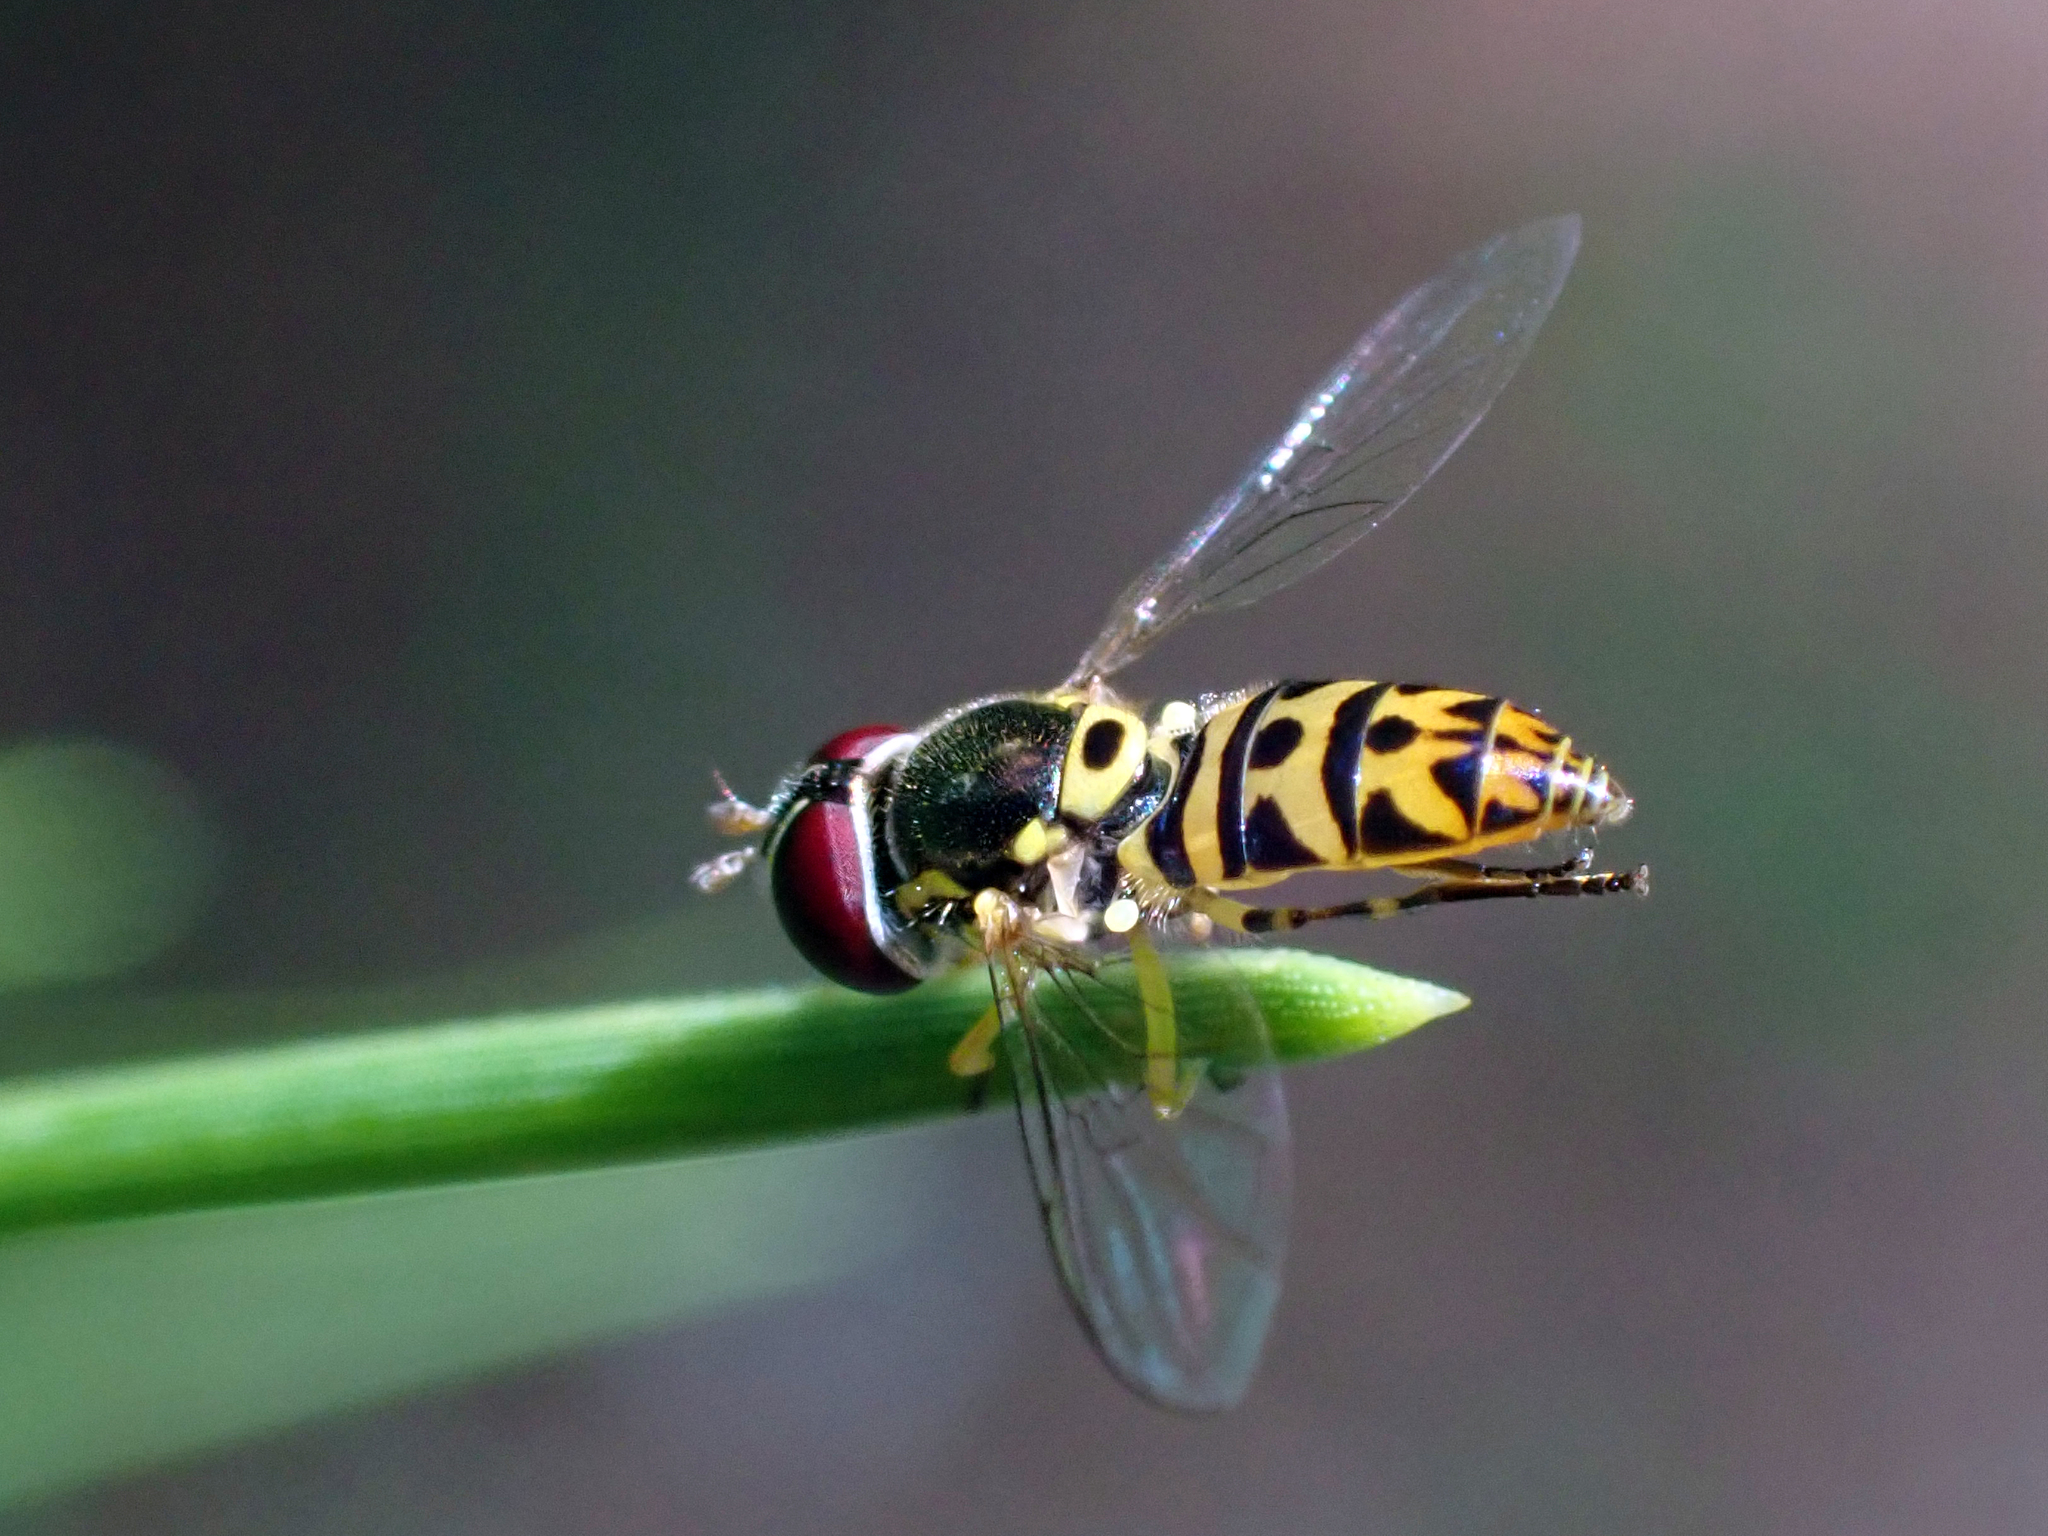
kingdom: Animalia
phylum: Arthropoda
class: Insecta
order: Diptera
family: Syrphidae
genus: Allograpta
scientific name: Allograpta radiata
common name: Syrphid fly
